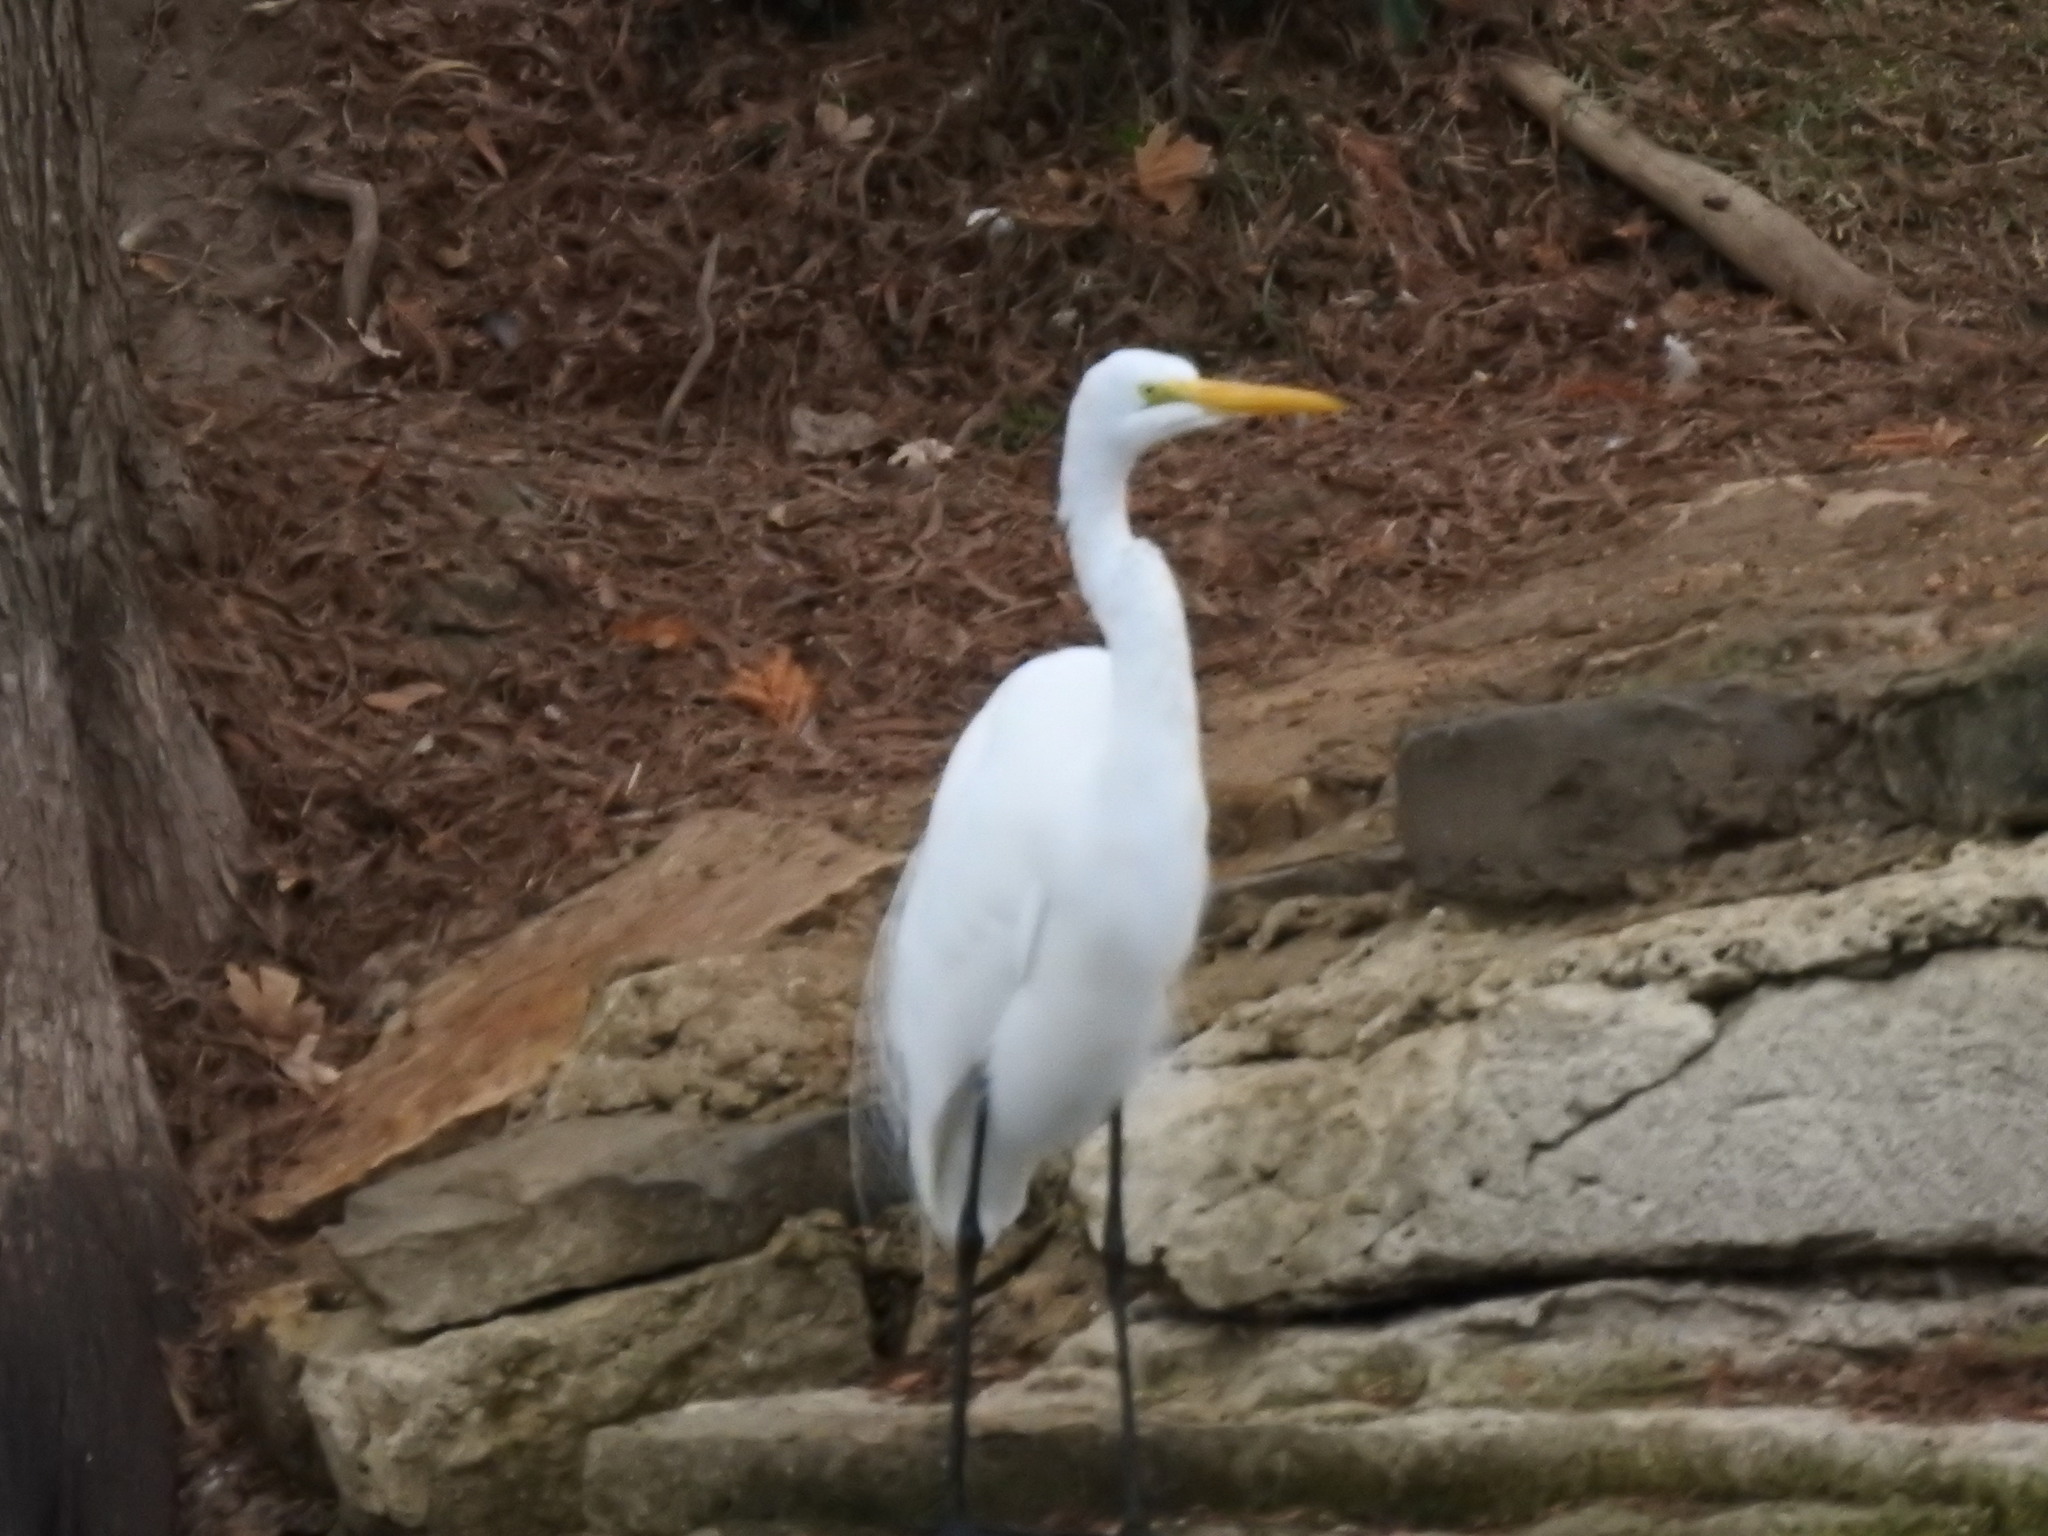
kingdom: Animalia
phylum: Chordata
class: Aves
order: Pelecaniformes
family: Ardeidae
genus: Ardea
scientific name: Ardea alba
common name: Great egret
